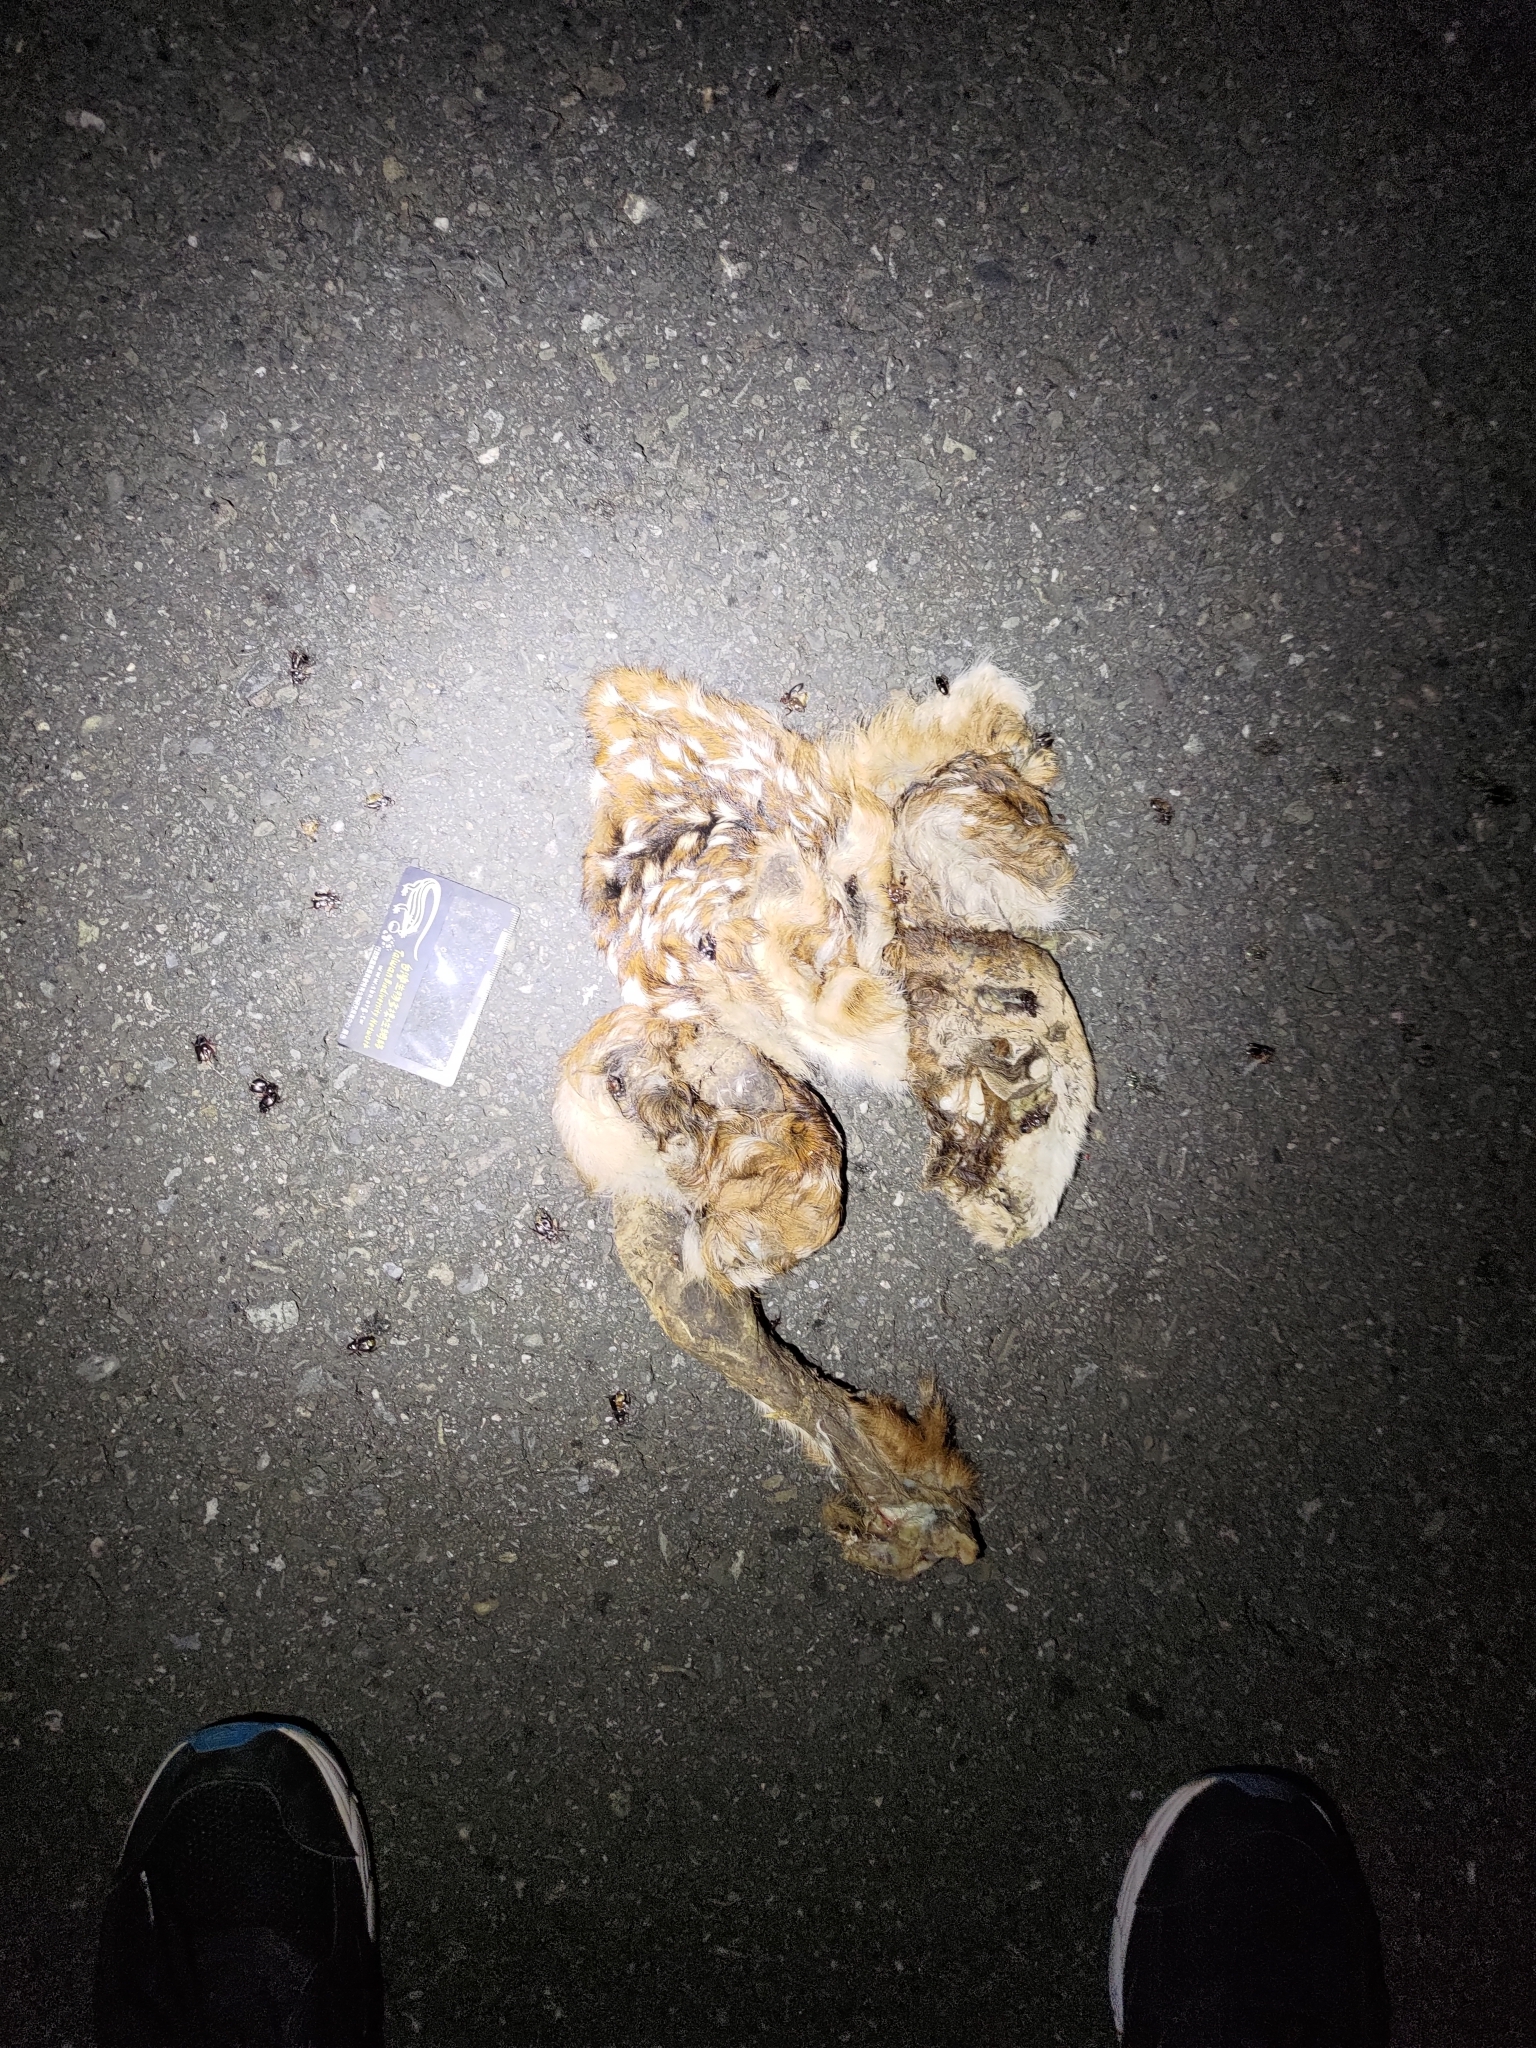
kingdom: Animalia
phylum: Chordata
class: Mammalia
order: Artiodactyla
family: Cervidae
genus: Cervus
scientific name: Cervus nippon
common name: Sika deer
